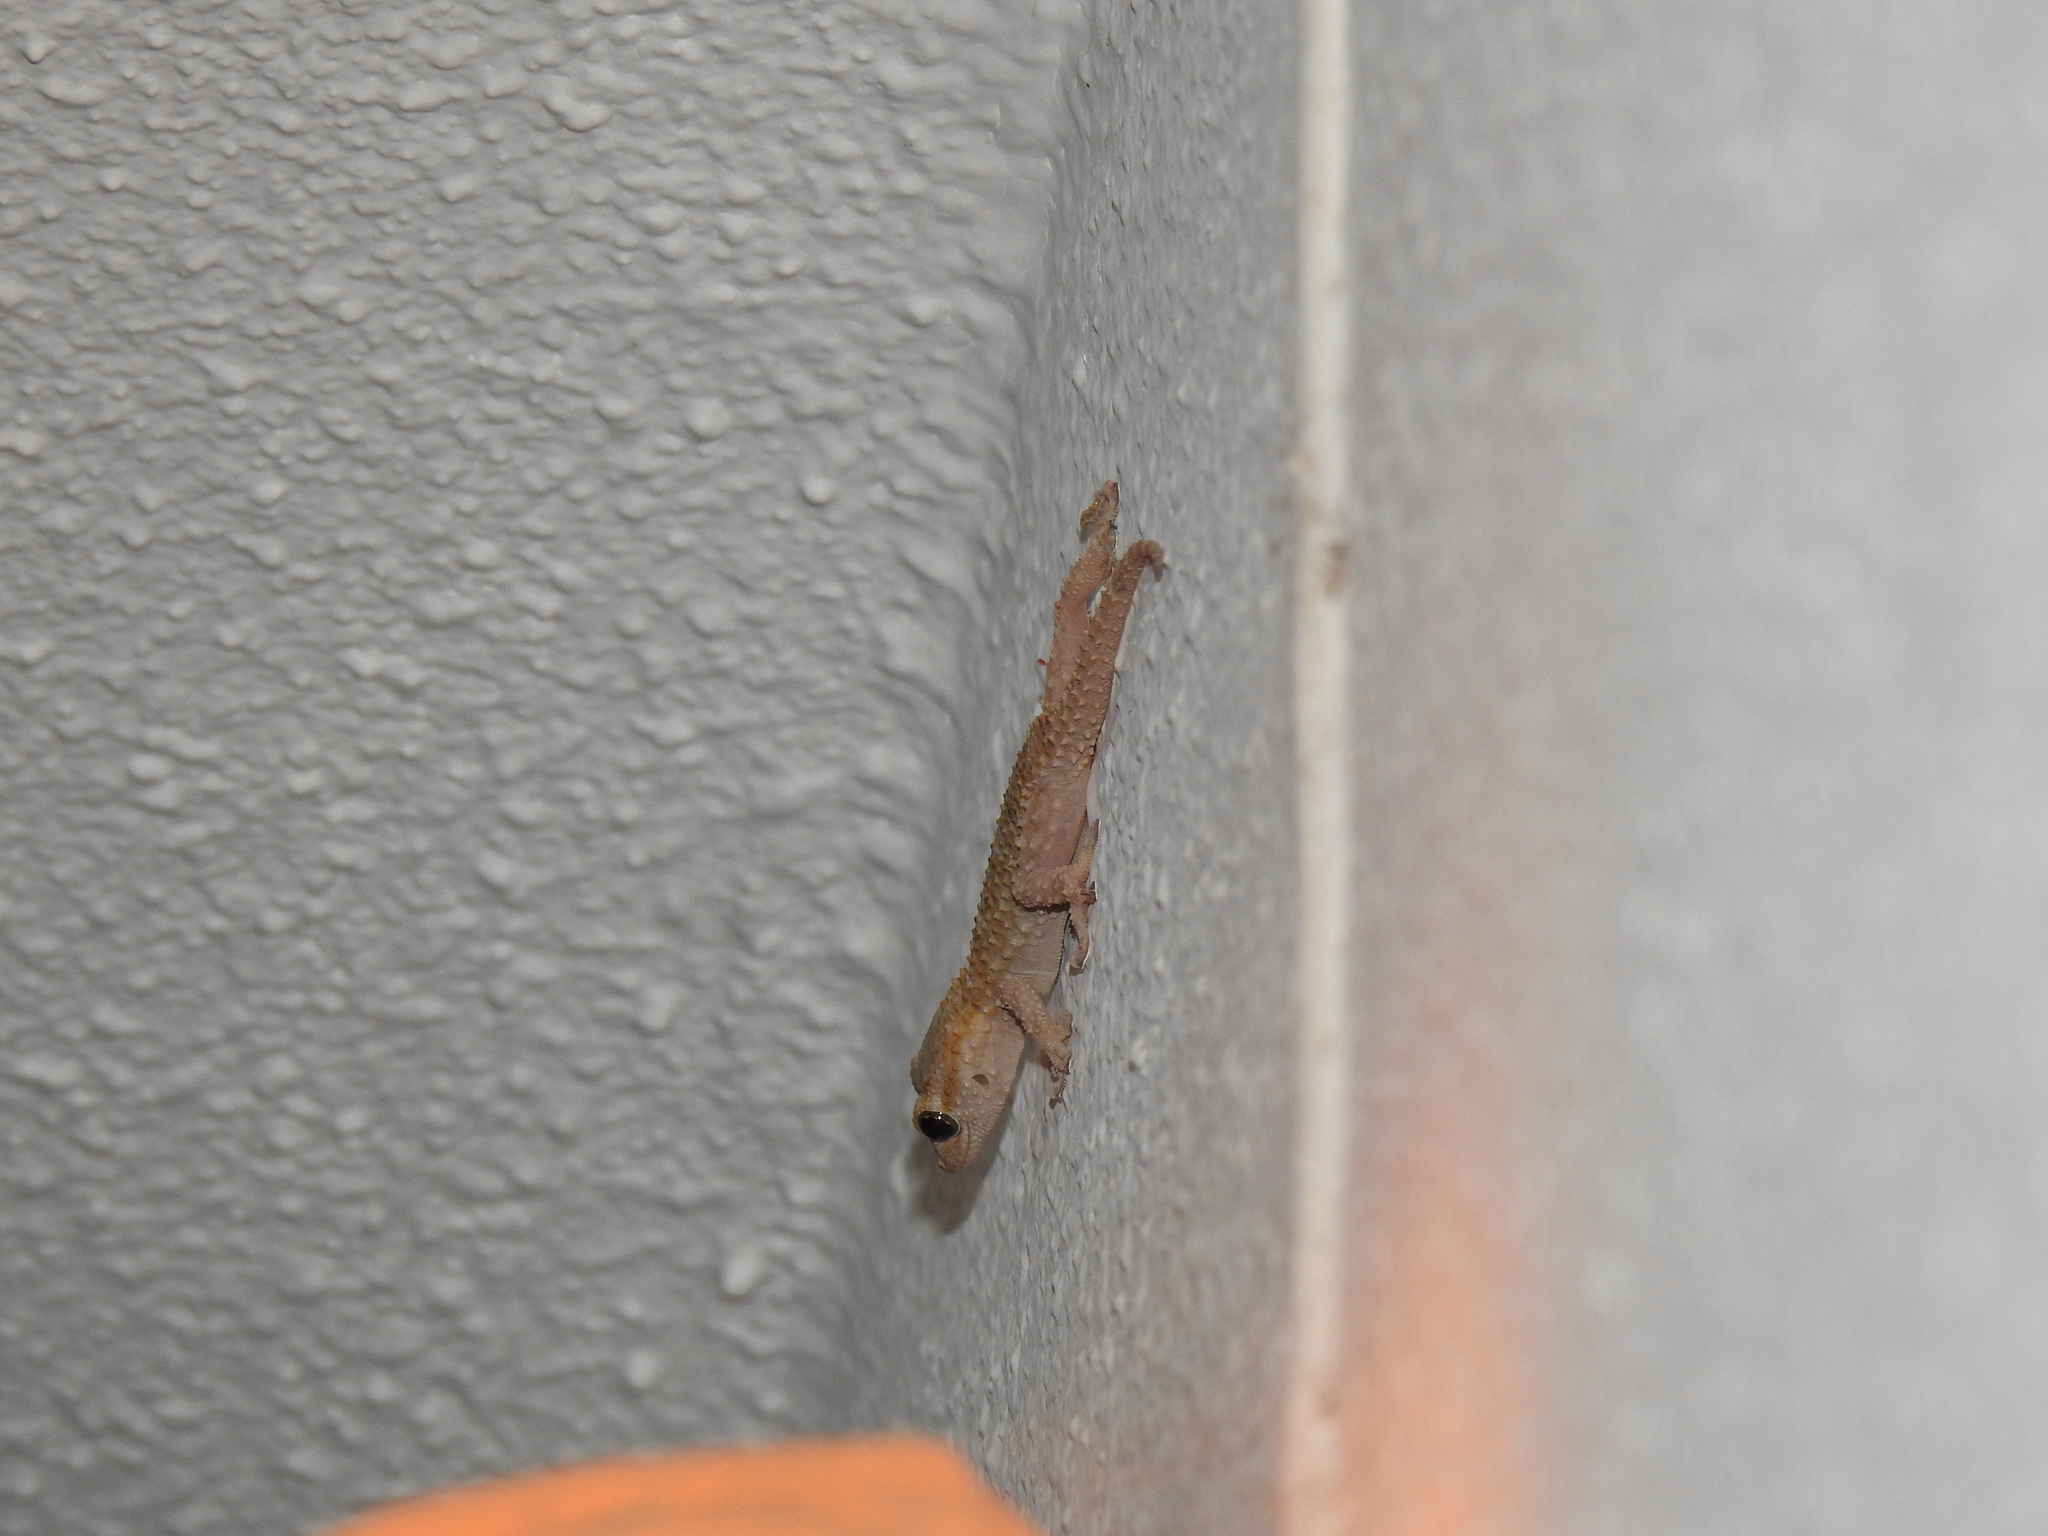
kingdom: Animalia
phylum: Chordata
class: Squamata
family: Phyllodactylidae
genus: Tarentola
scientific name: Tarentola mauritanica
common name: Moorish gecko
